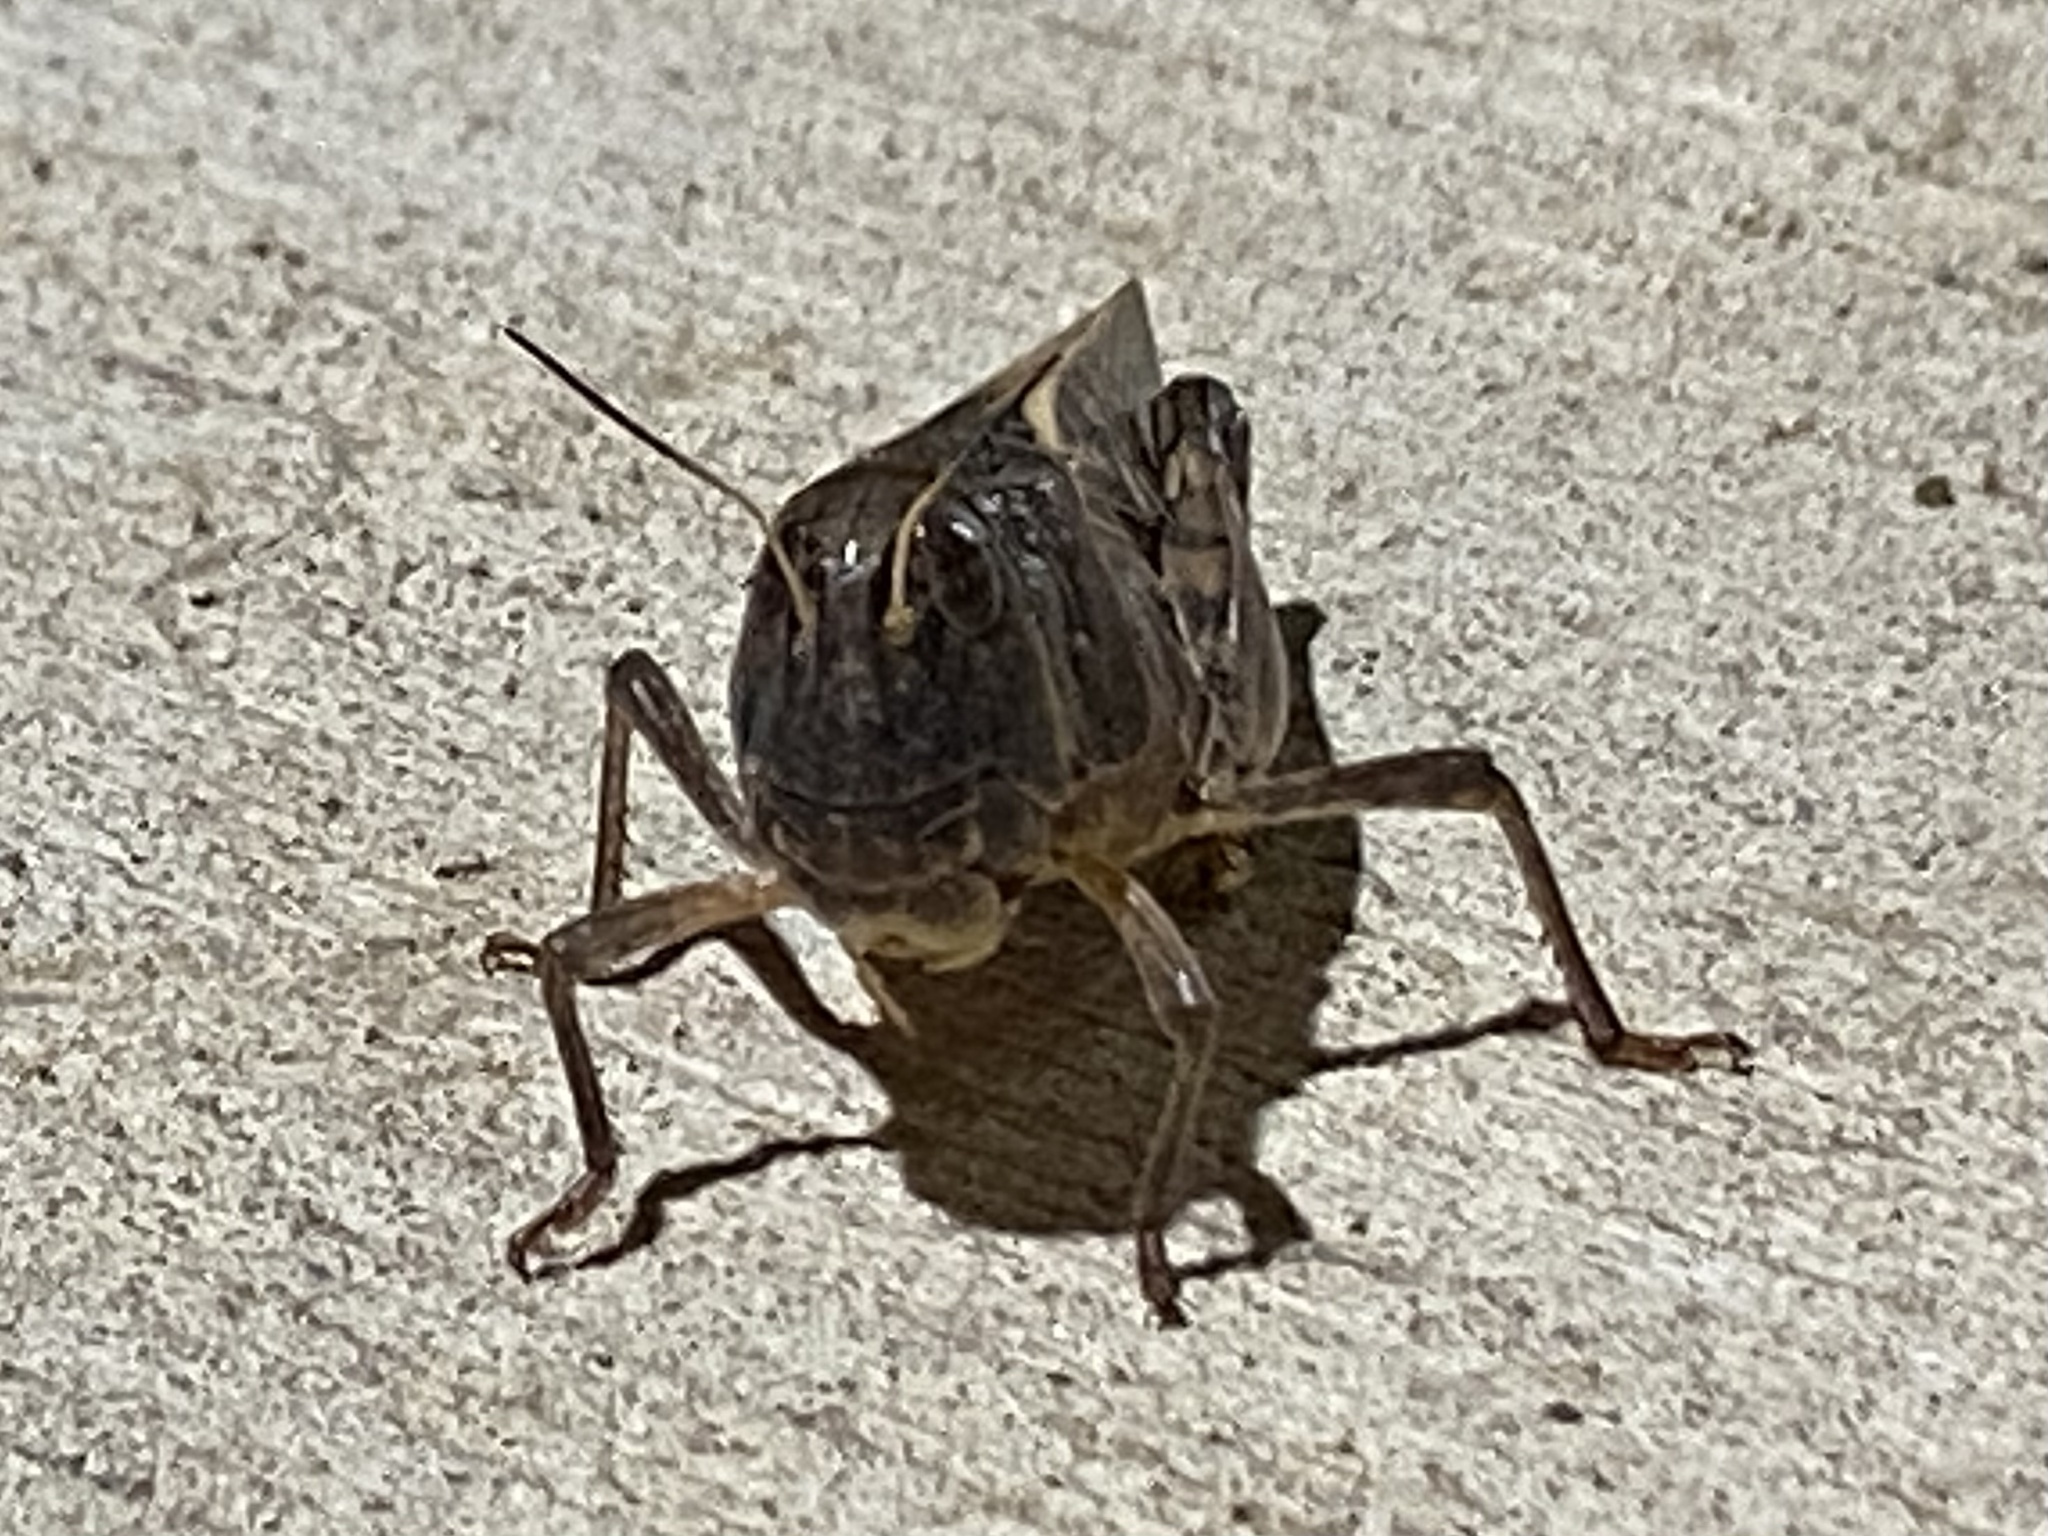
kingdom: Animalia
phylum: Arthropoda
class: Insecta
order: Orthoptera
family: Acrididae
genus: Hippiscus
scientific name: Hippiscus ocelote
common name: Wrinkled grasshopper
